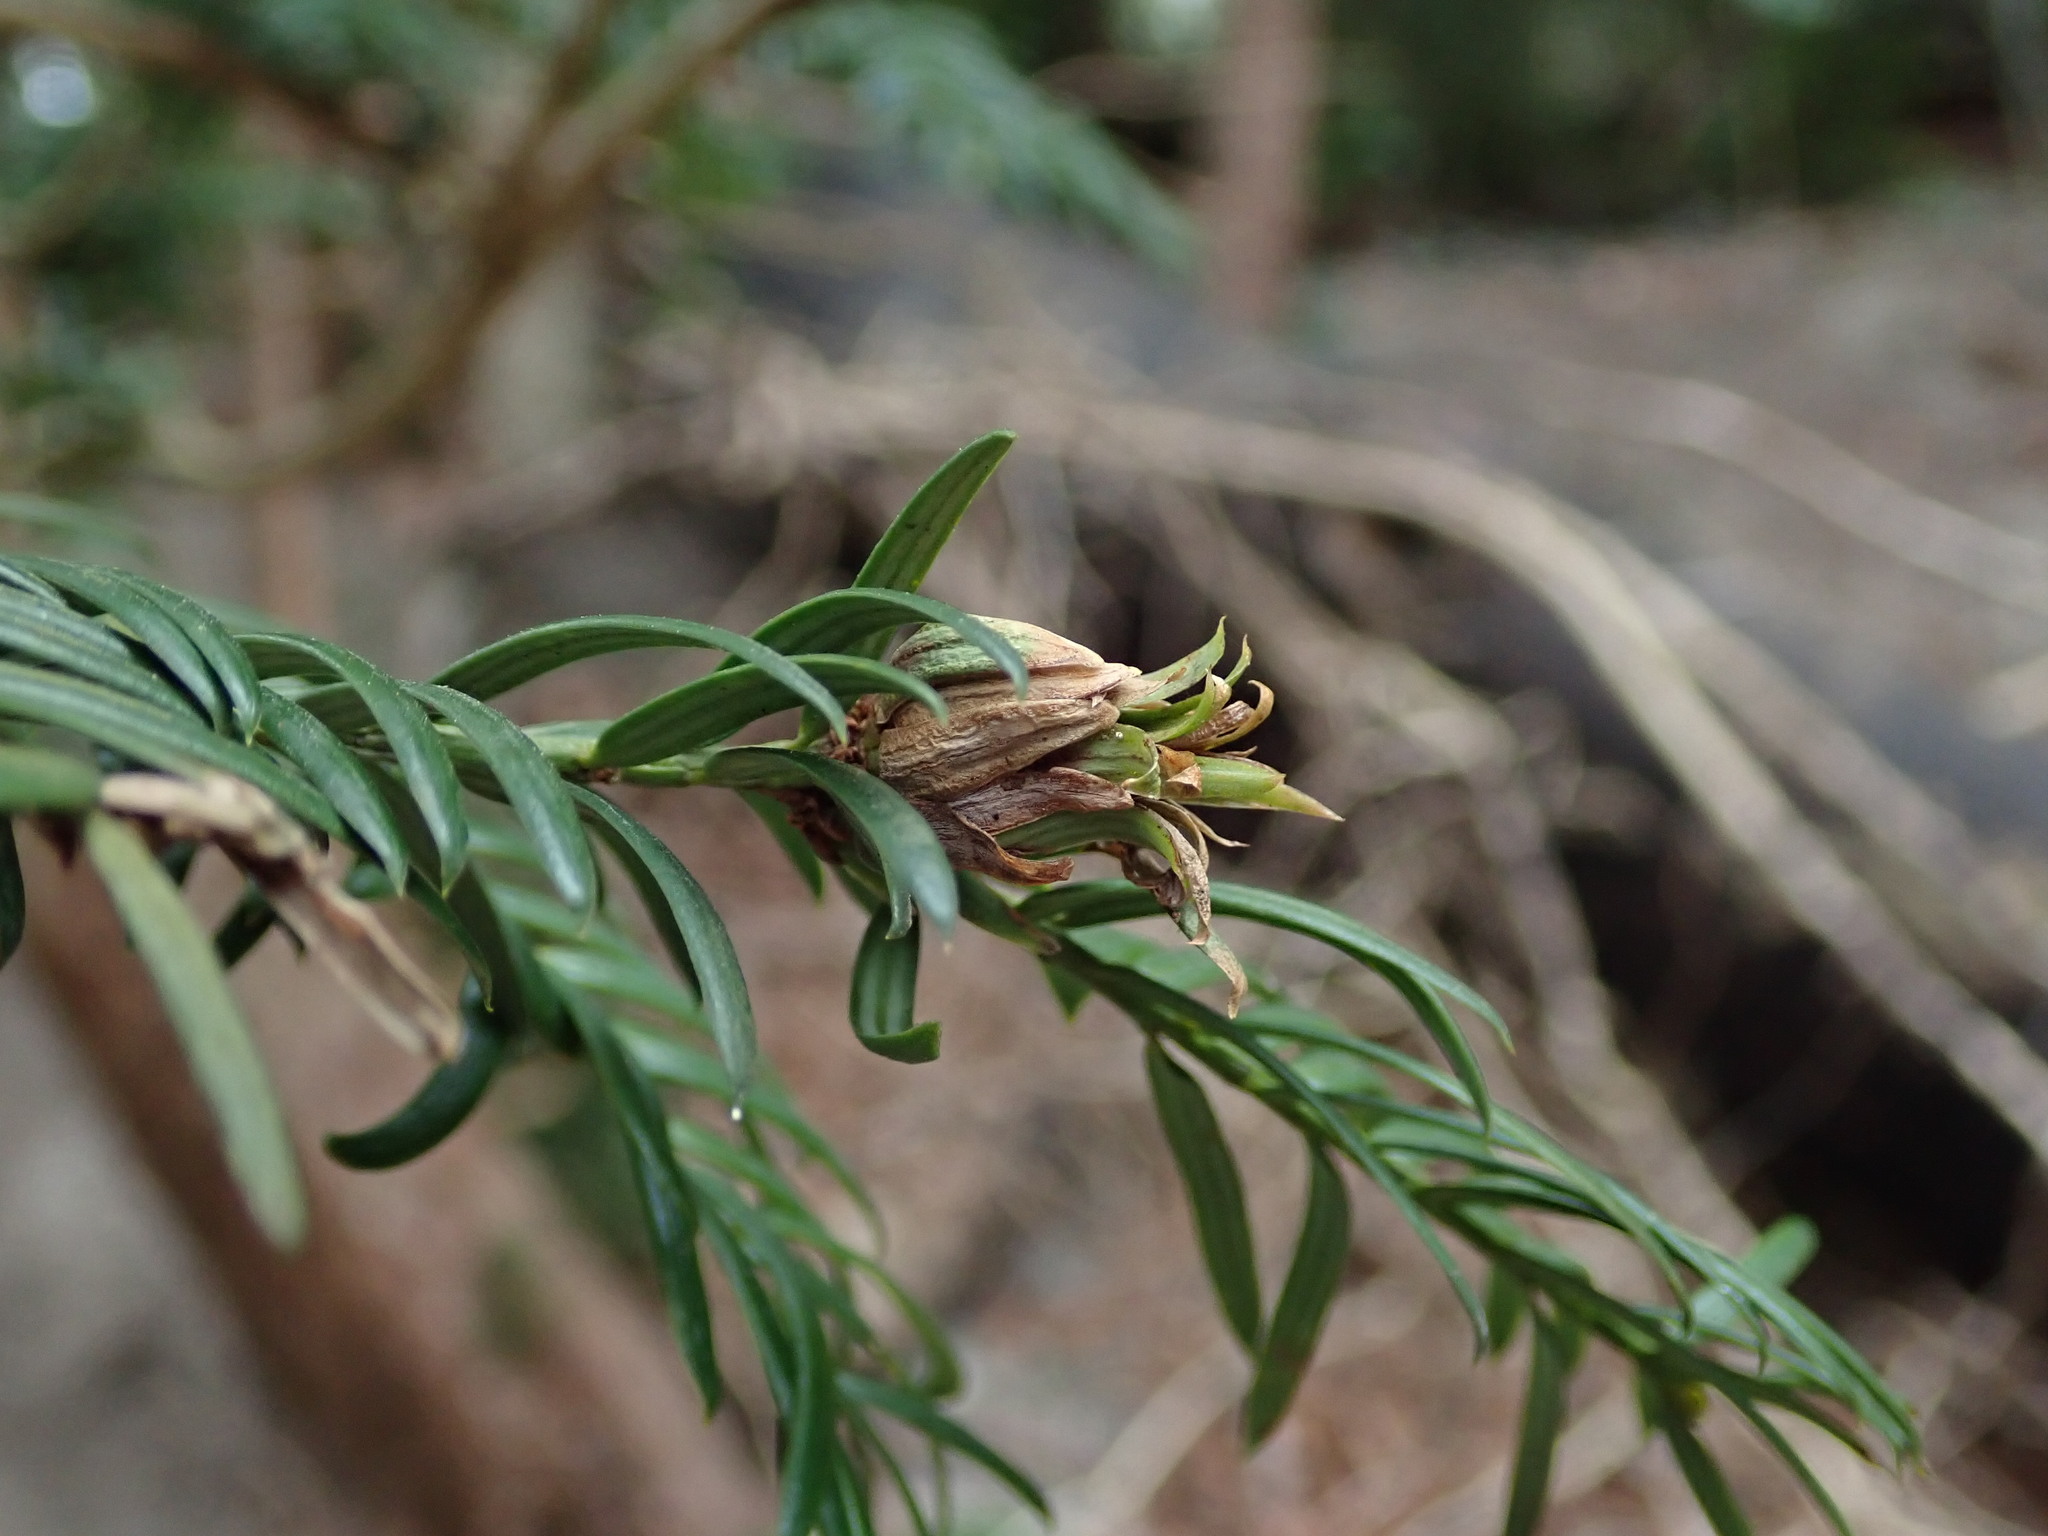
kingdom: Animalia
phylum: Arthropoda
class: Insecta
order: Diptera
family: Cecidomyiidae
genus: Taxomyia
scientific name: Taxomyia taxi
